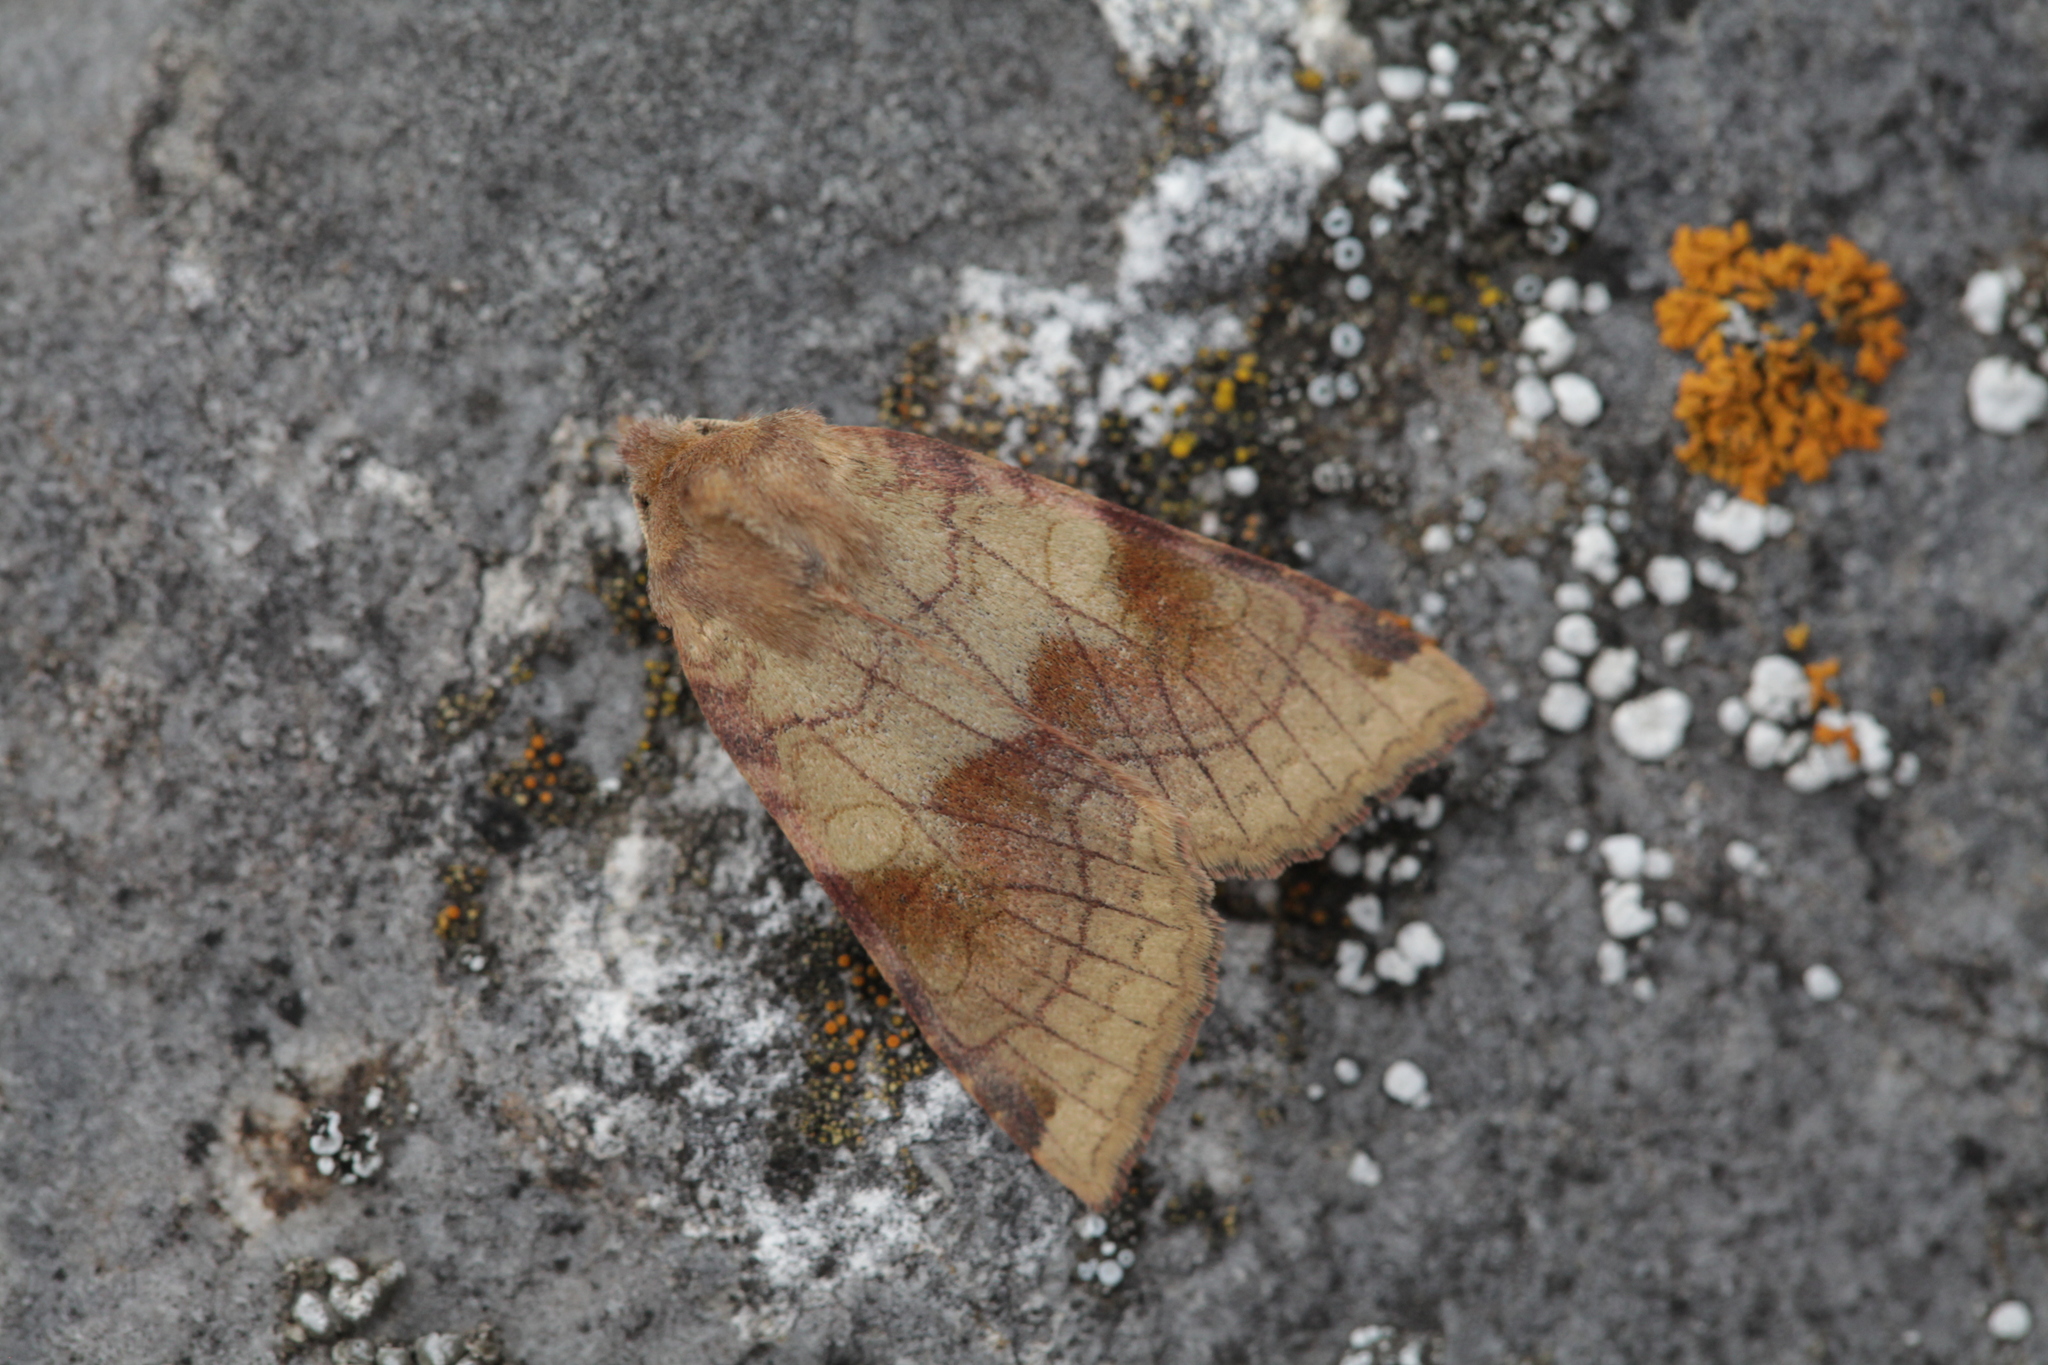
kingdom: Animalia
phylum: Arthropoda
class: Insecta
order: Lepidoptera
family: Noctuidae
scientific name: Noctuidae
